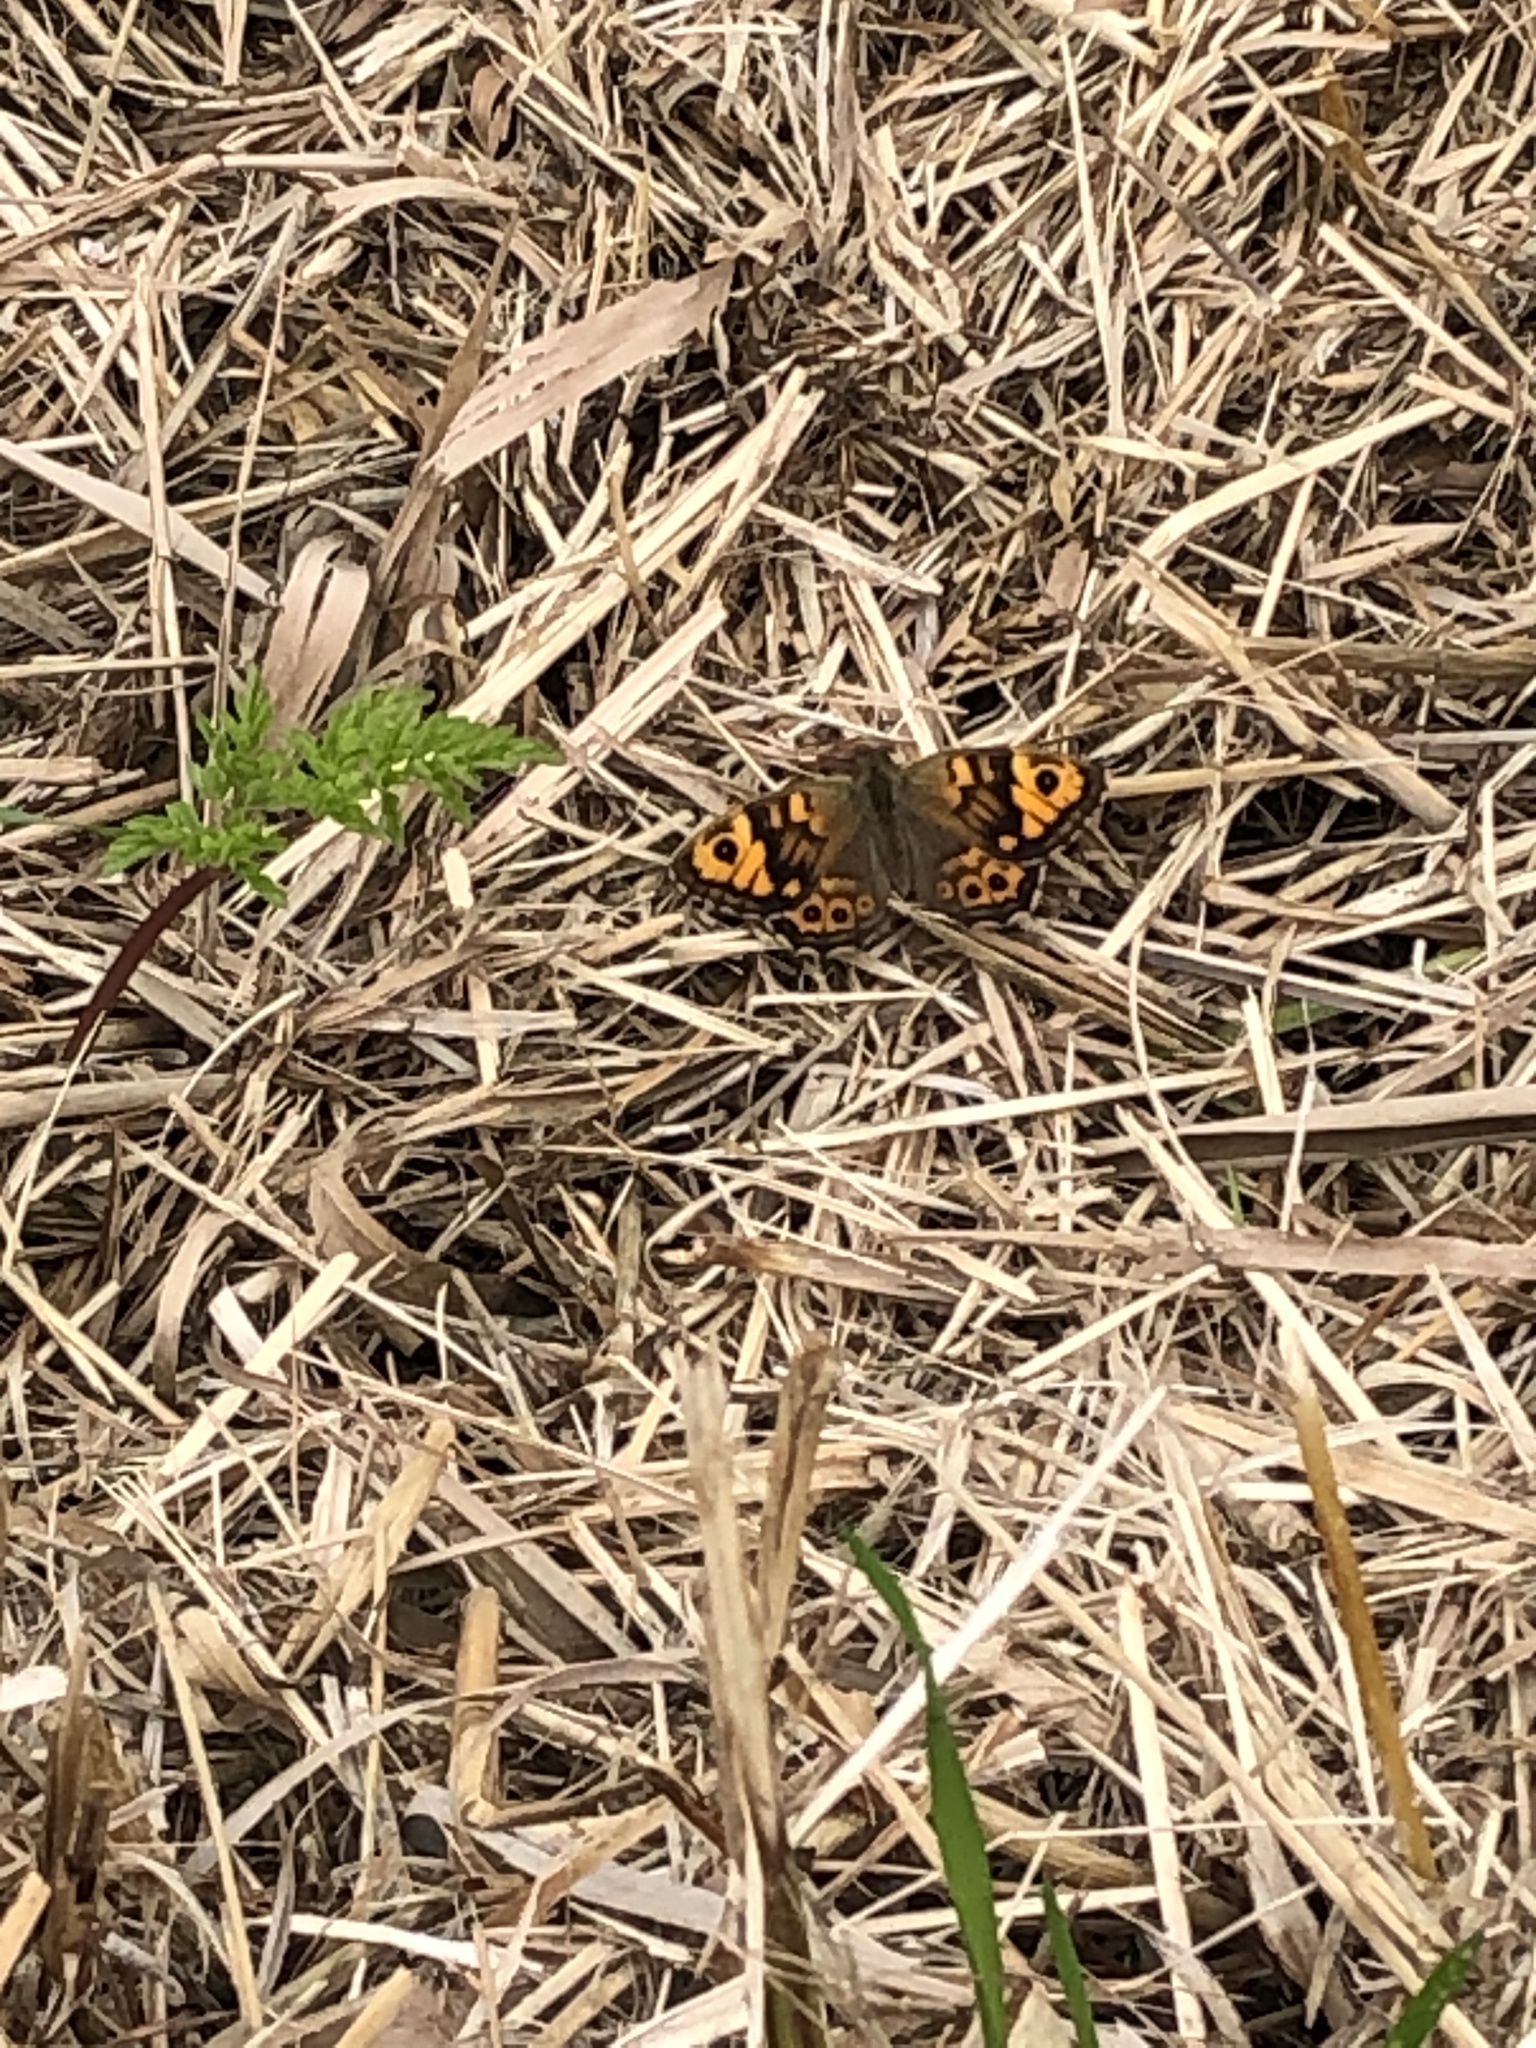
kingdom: Animalia
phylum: Arthropoda
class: Insecta
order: Lepidoptera
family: Nymphalidae
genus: Pararge
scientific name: Pararge Lasiommata megera
